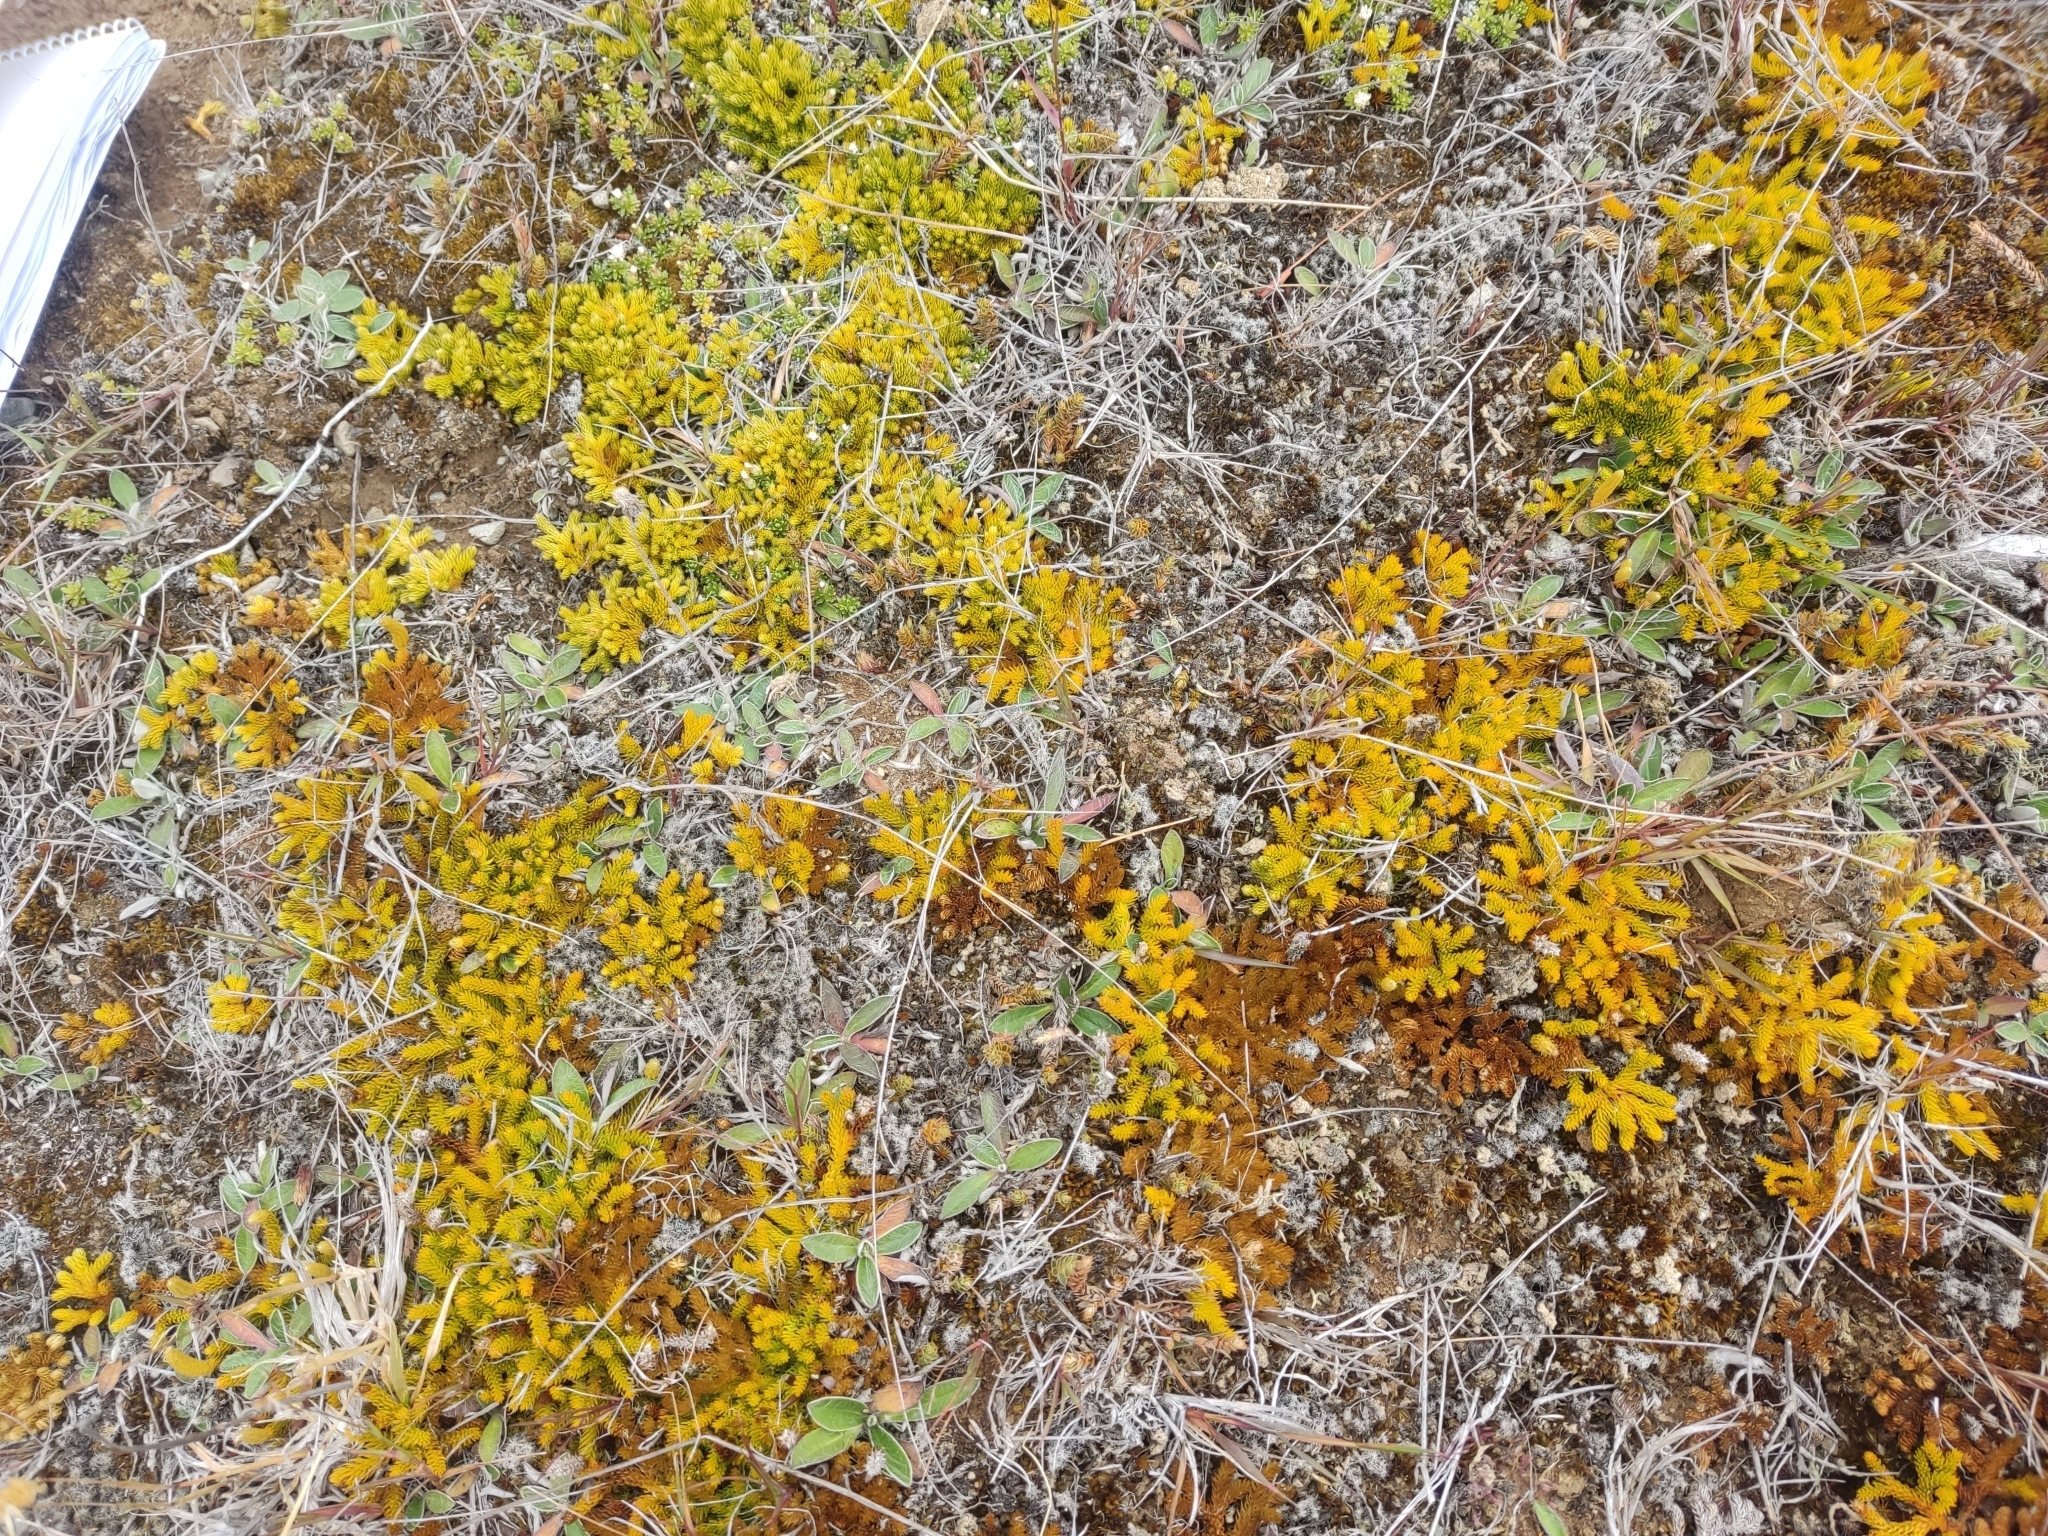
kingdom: Plantae
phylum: Tracheophyta
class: Lycopodiopsida
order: Lycopodiales
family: Lycopodiaceae
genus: Austrolycopodium
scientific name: Austrolycopodium fastigiatum
